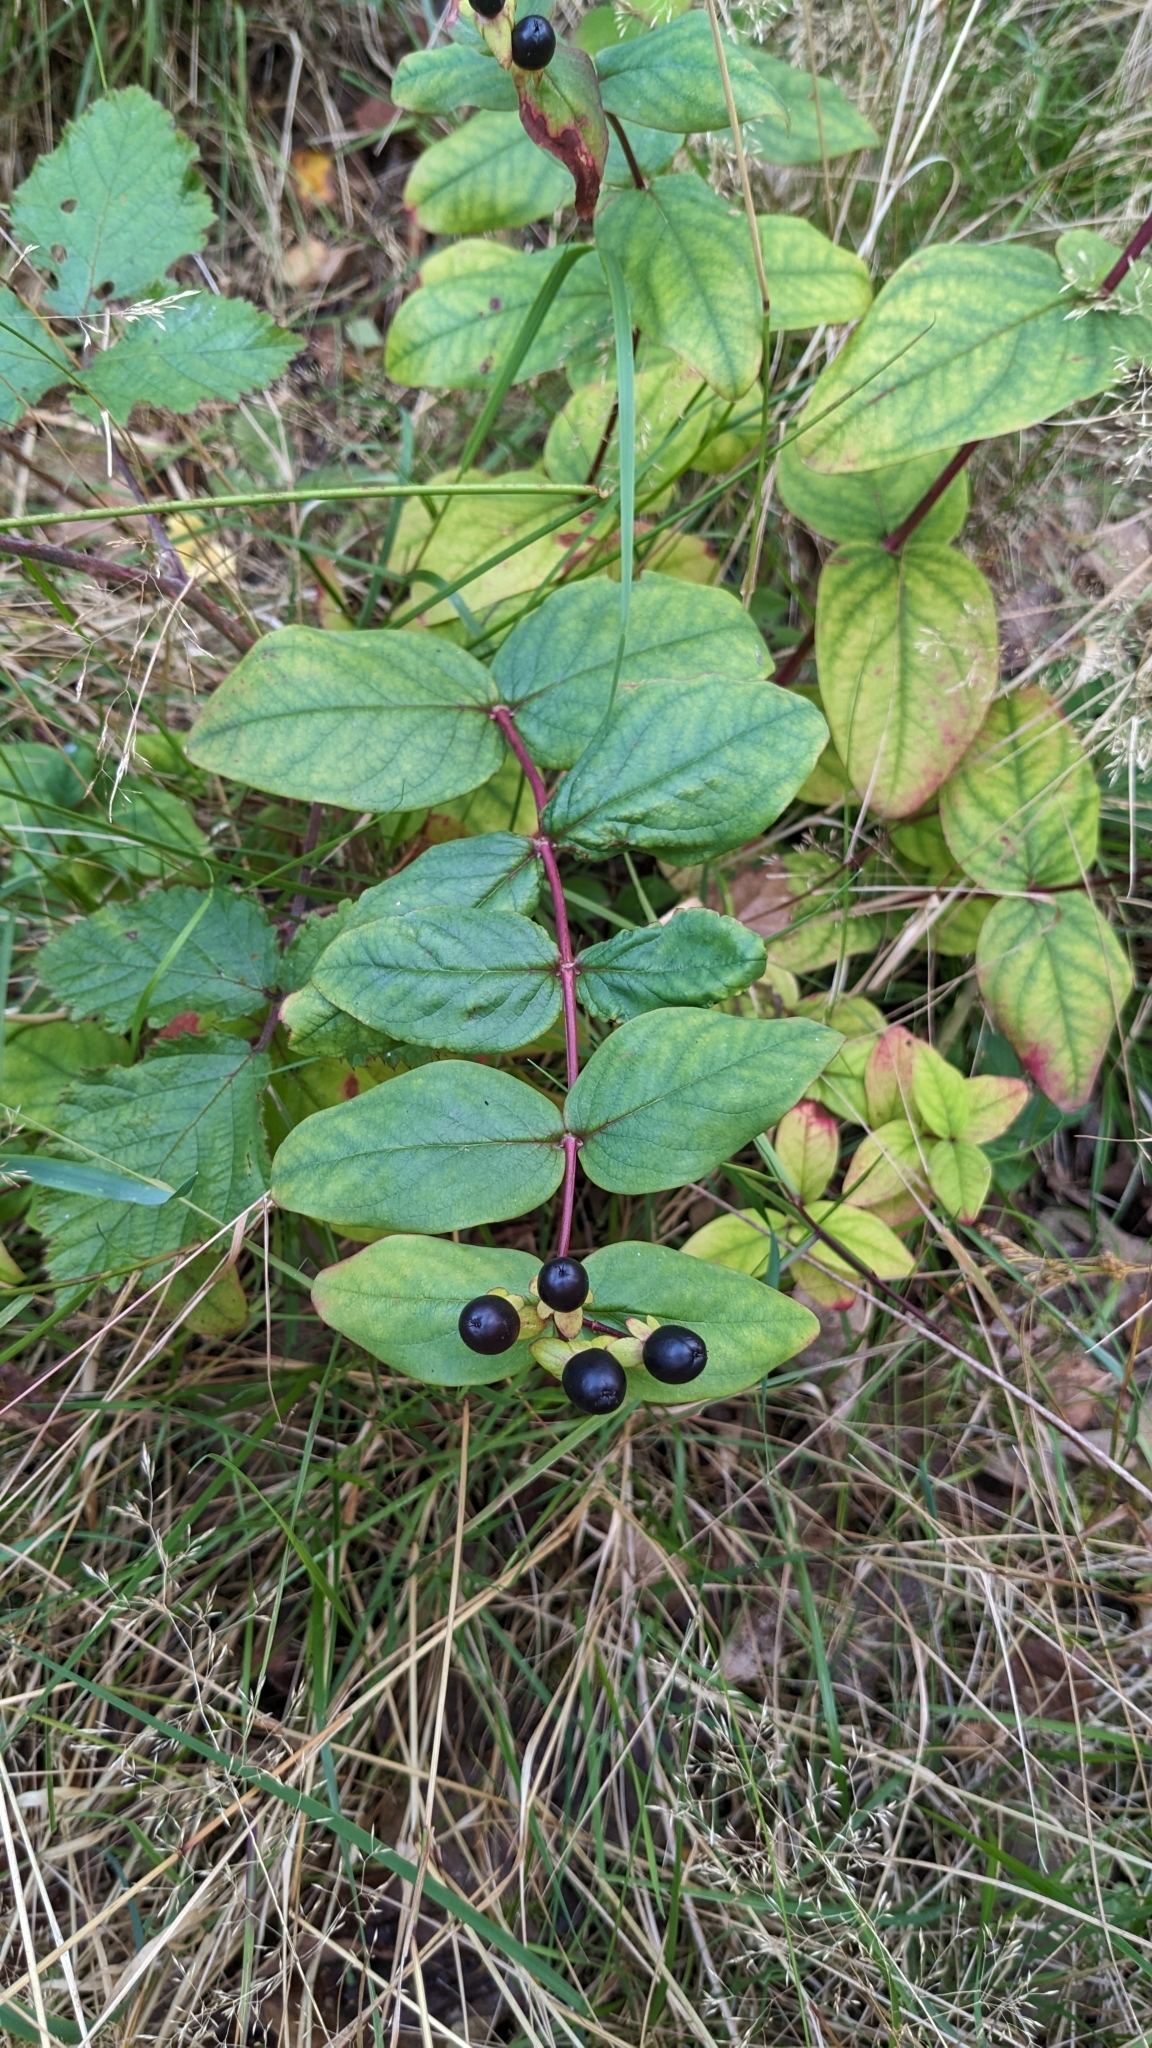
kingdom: Plantae
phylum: Tracheophyta
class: Magnoliopsida
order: Malpighiales
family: Hypericaceae
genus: Hypericum
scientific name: Hypericum androsaemum
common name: Sweet-amber
